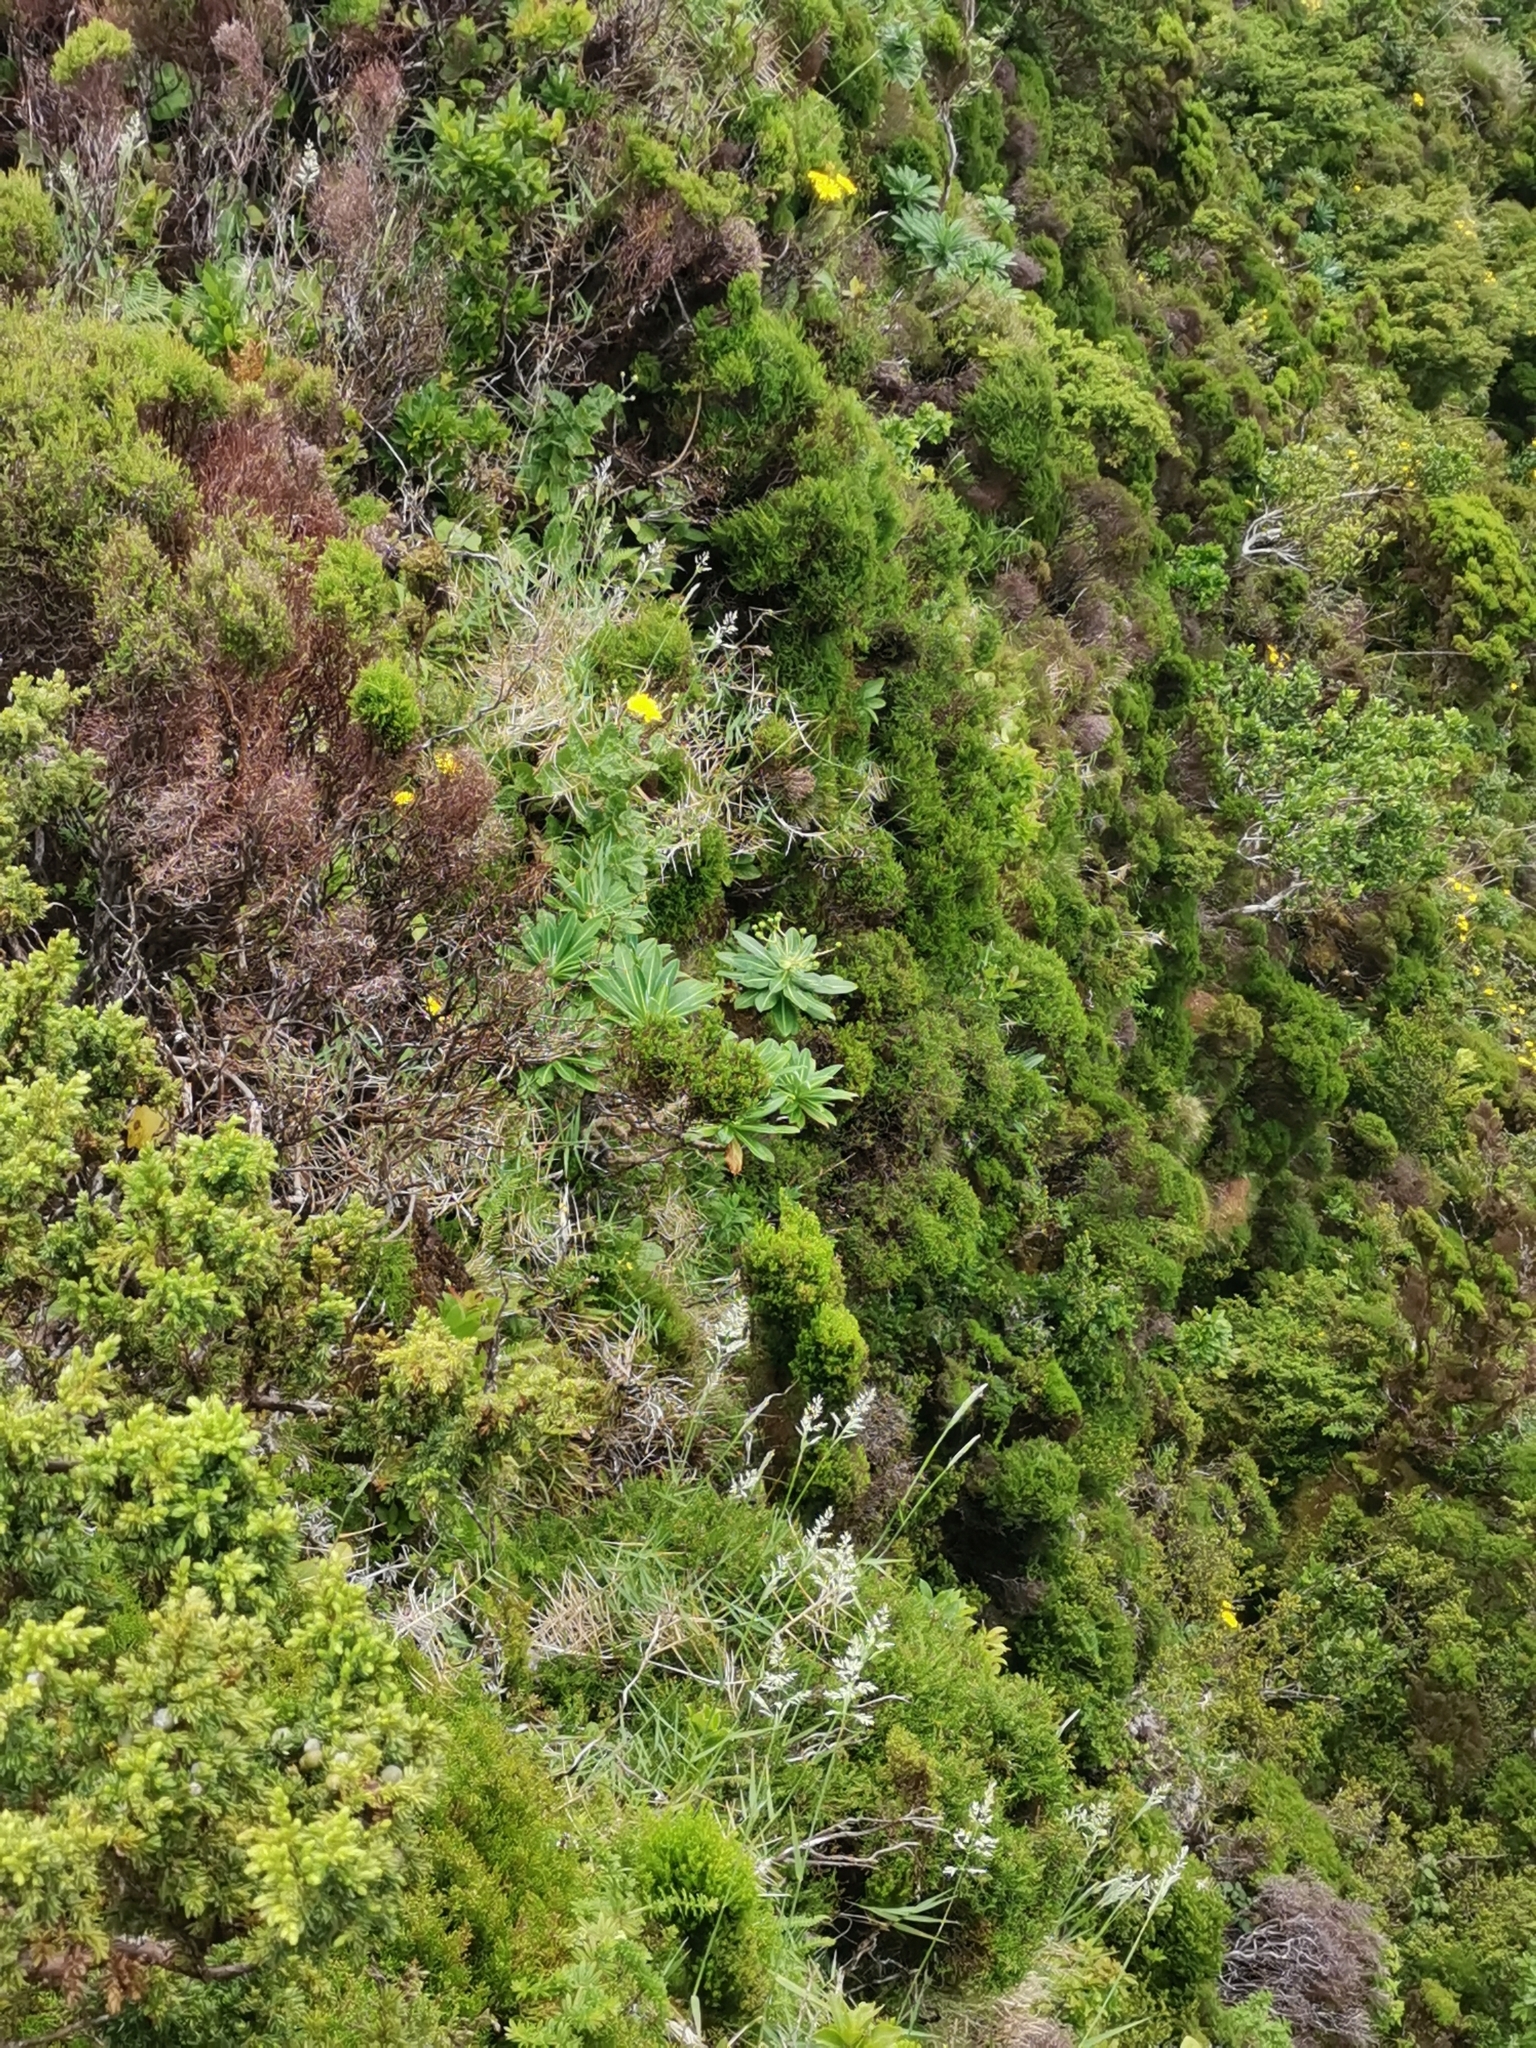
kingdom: Plantae
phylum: Tracheophyta
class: Magnoliopsida
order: Malpighiales
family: Euphorbiaceae
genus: Euphorbia
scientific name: Euphorbia stygiana
